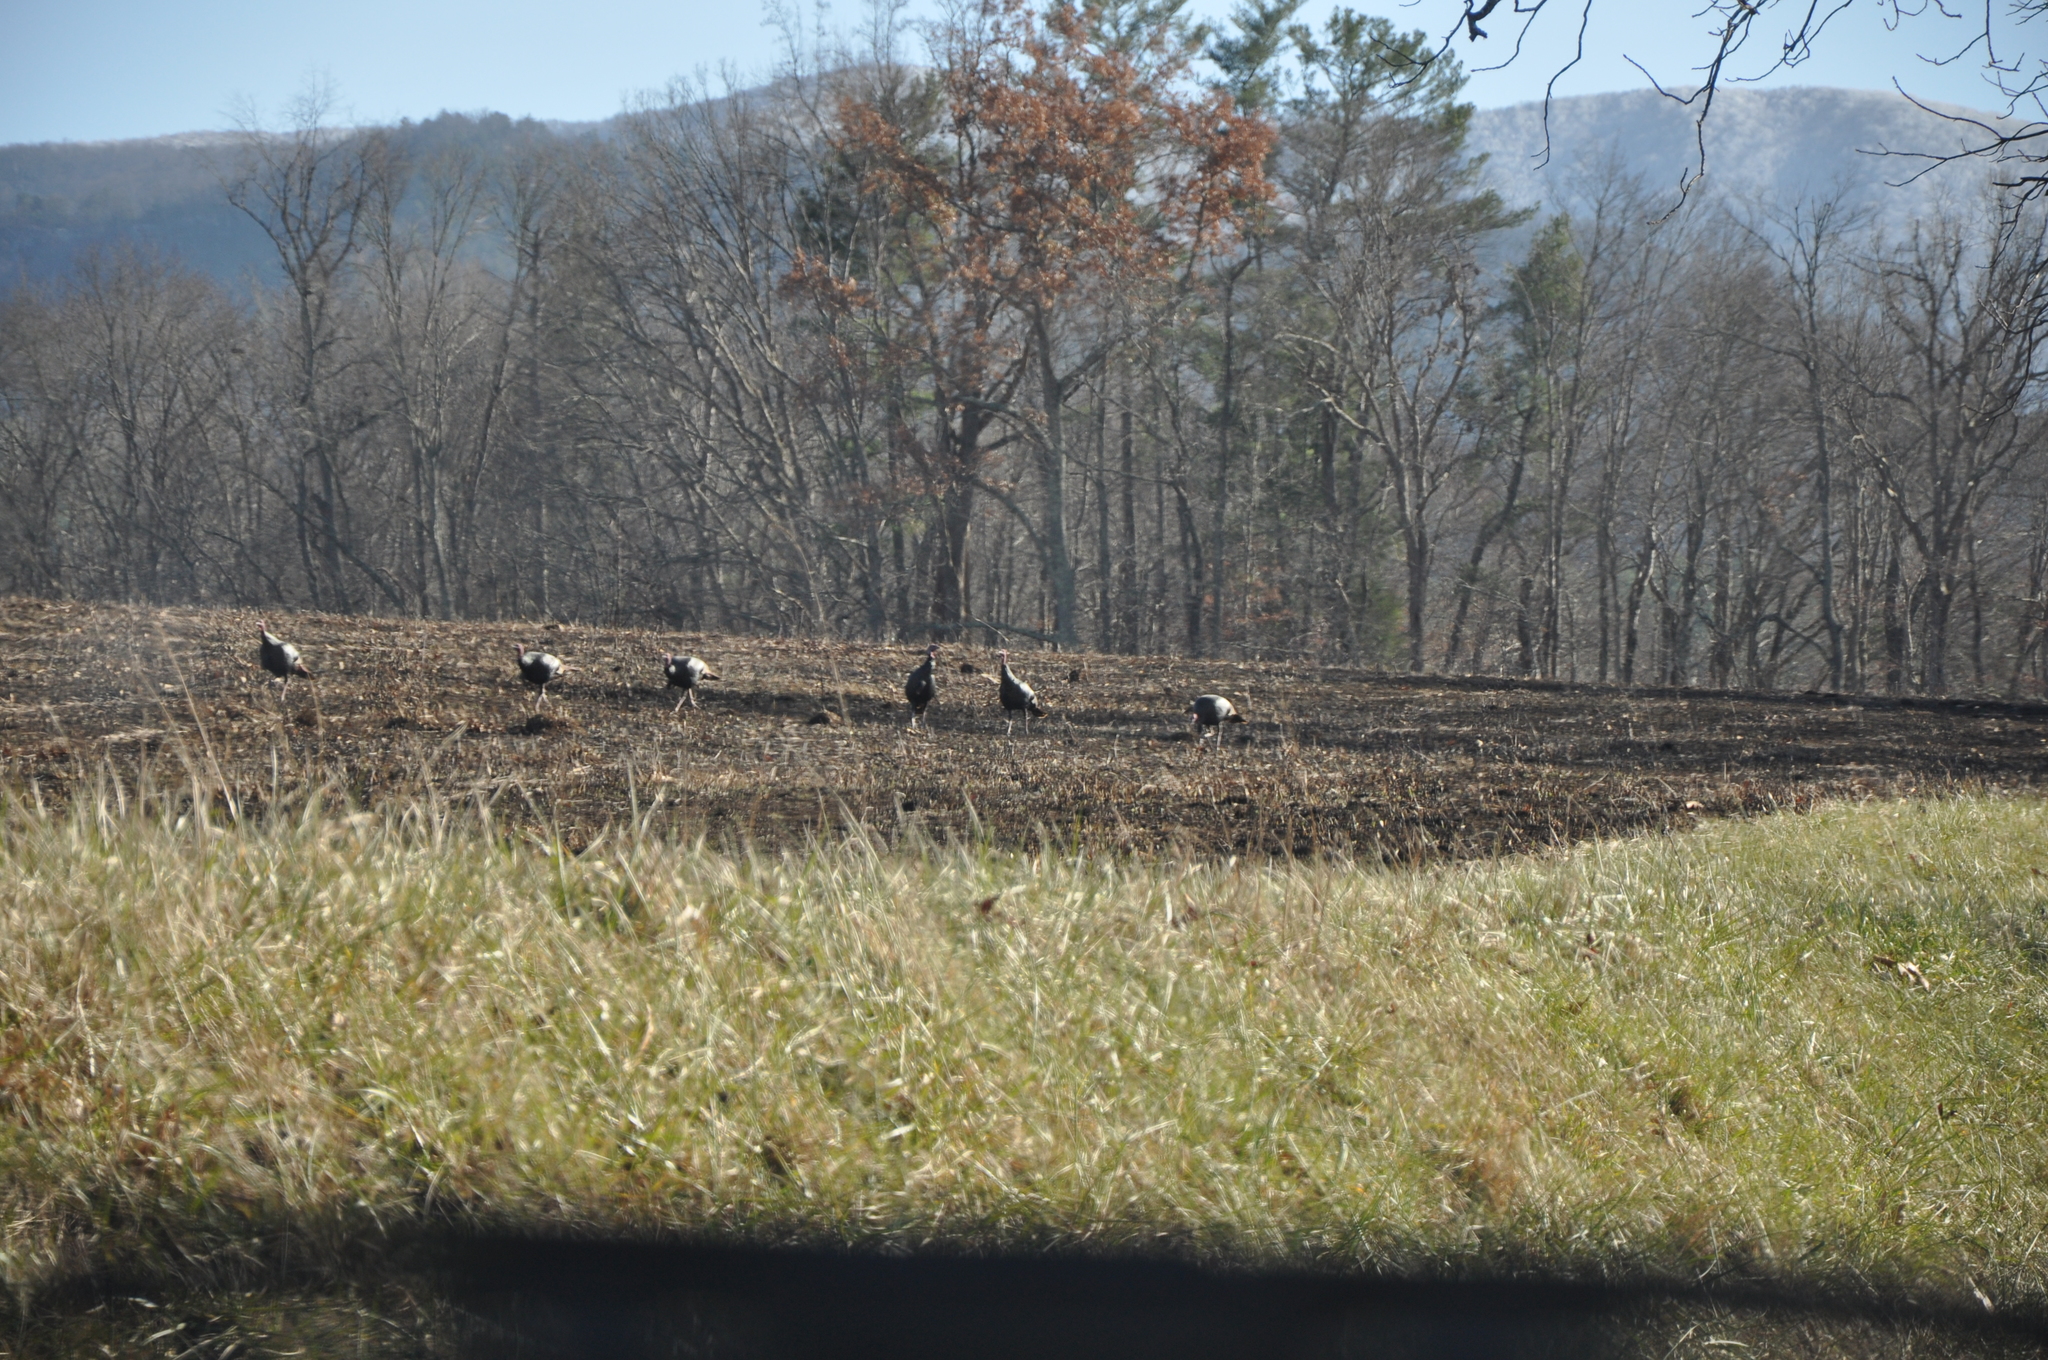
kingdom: Animalia
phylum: Chordata
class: Aves
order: Galliformes
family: Phasianidae
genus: Meleagris
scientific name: Meleagris gallopavo
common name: Wild turkey
